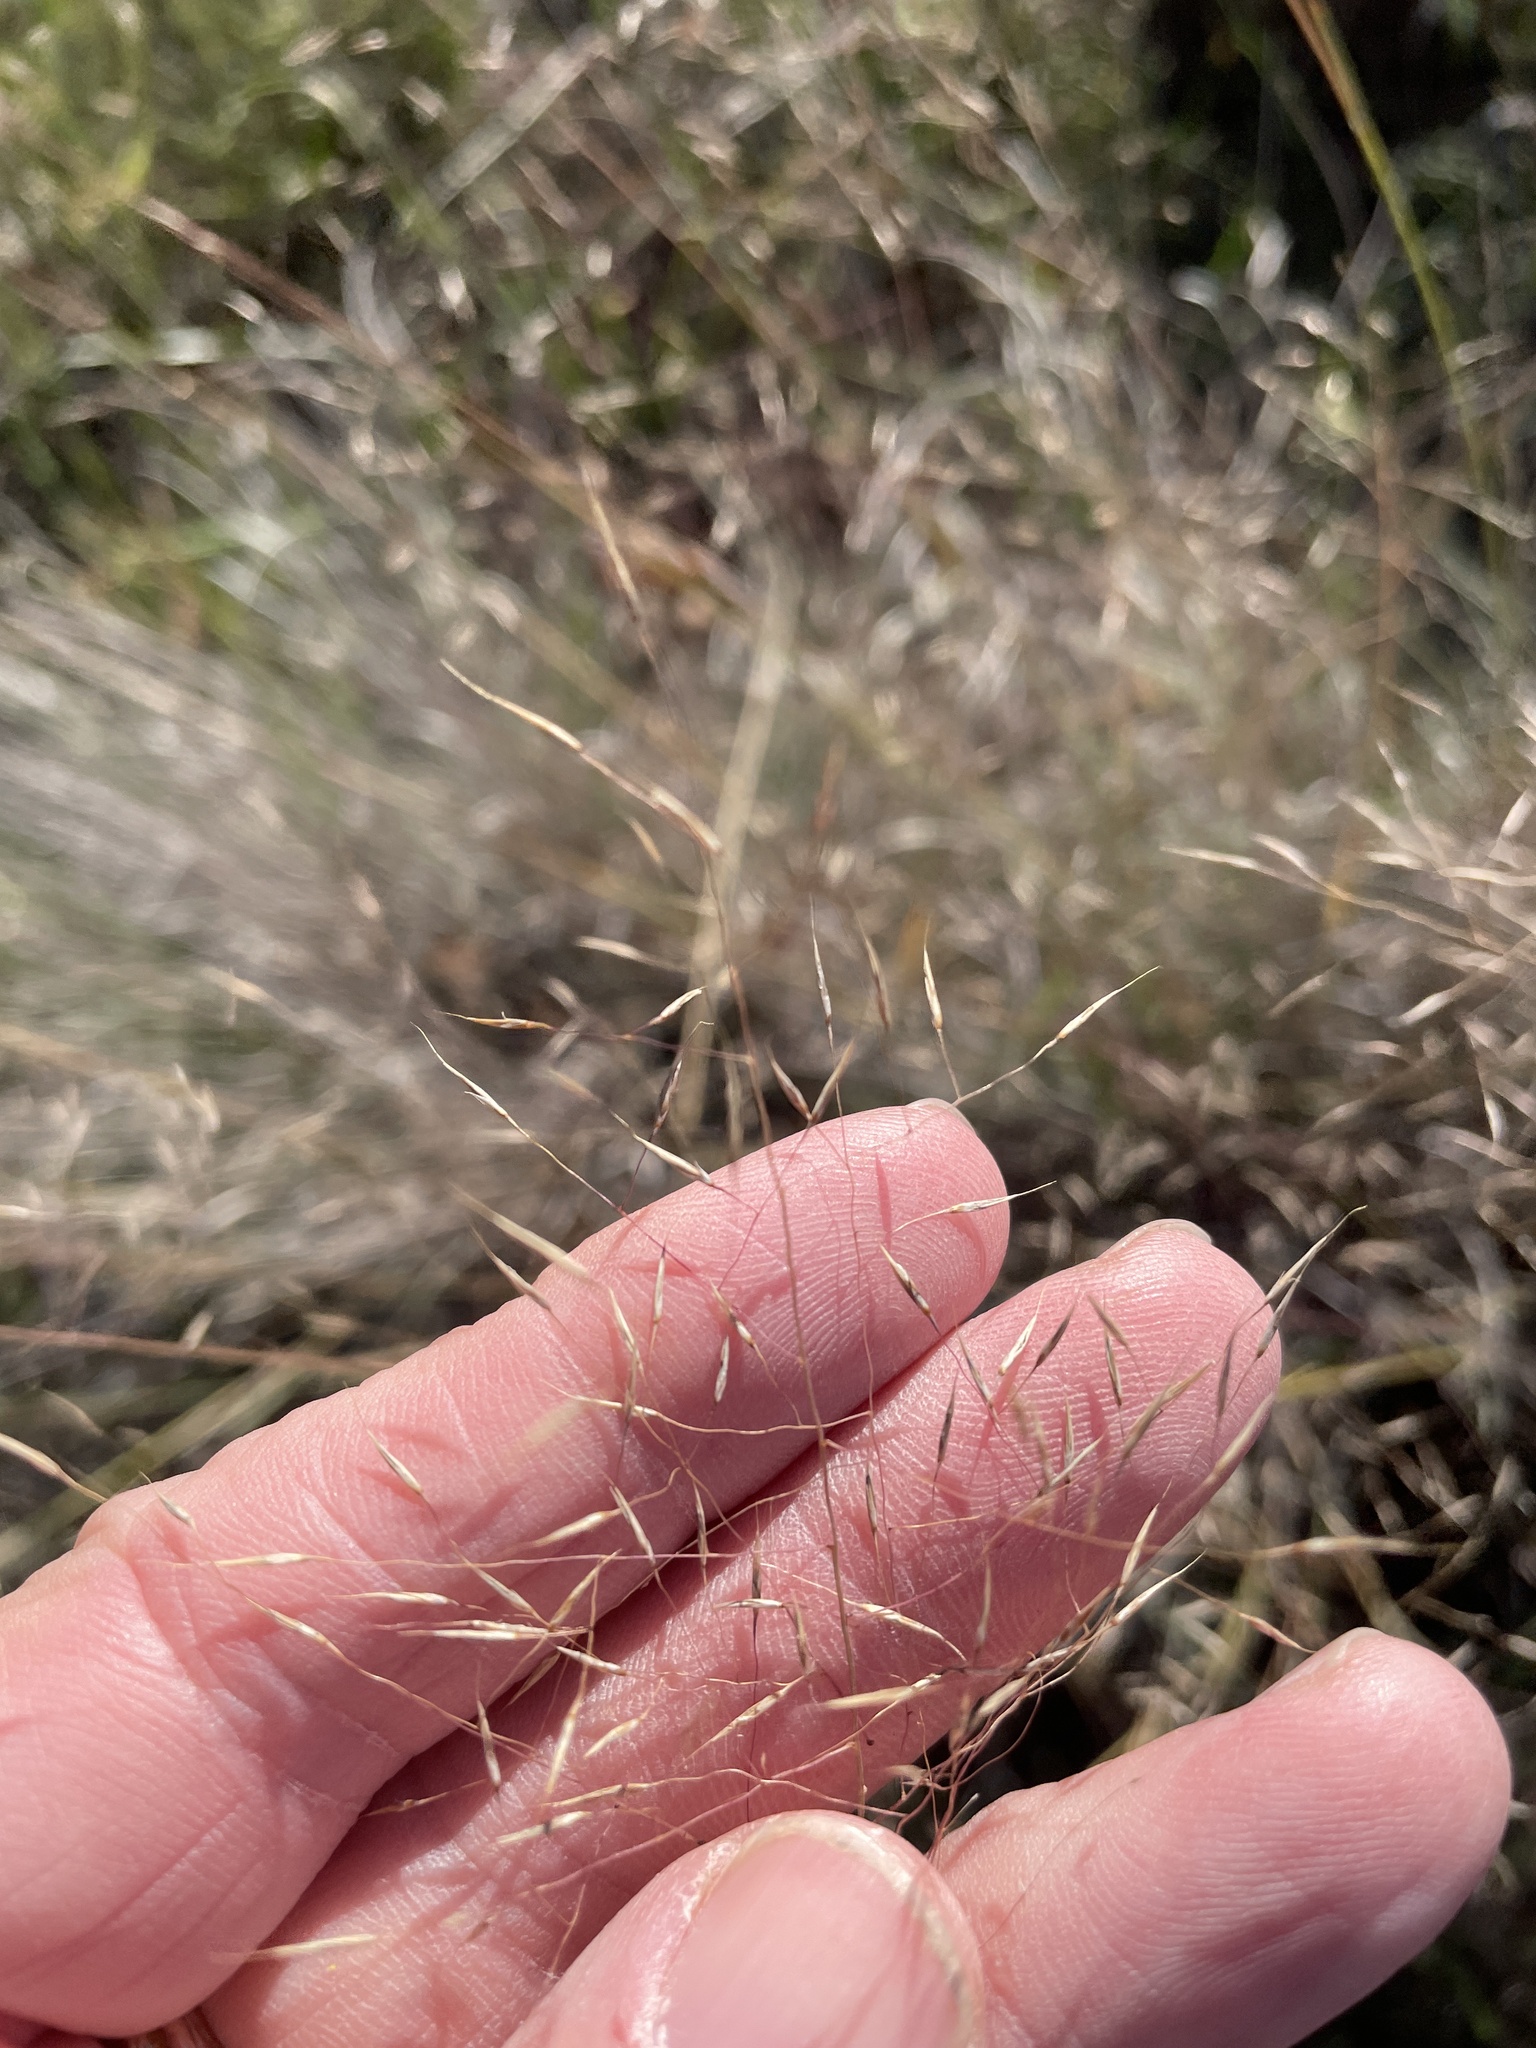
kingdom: Plantae
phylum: Tracheophyta
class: Liliopsida
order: Poales
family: Poaceae
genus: Muhlenbergia
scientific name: Muhlenbergia reverchonii
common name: Seep muhly
